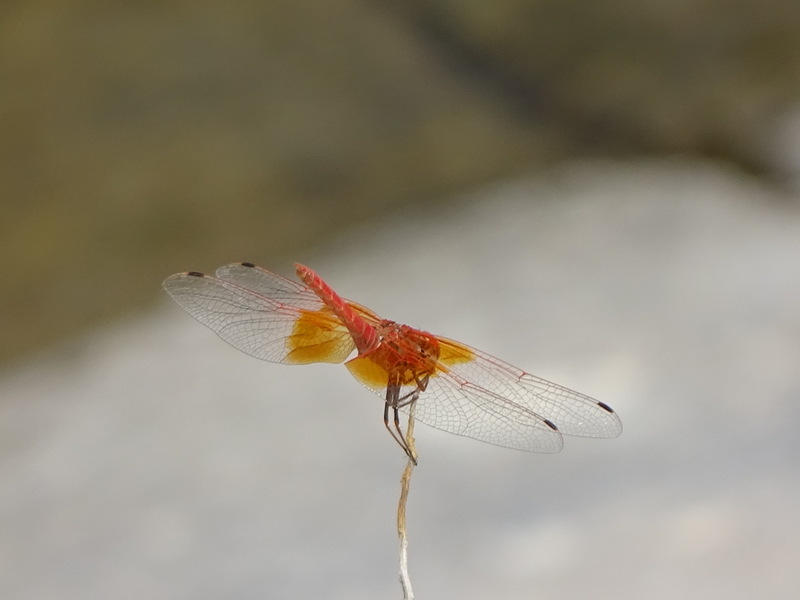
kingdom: Animalia
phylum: Arthropoda
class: Insecta
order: Odonata
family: Libellulidae
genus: Trithemis
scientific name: Trithemis kirbyi
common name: Kirby's dropwing
